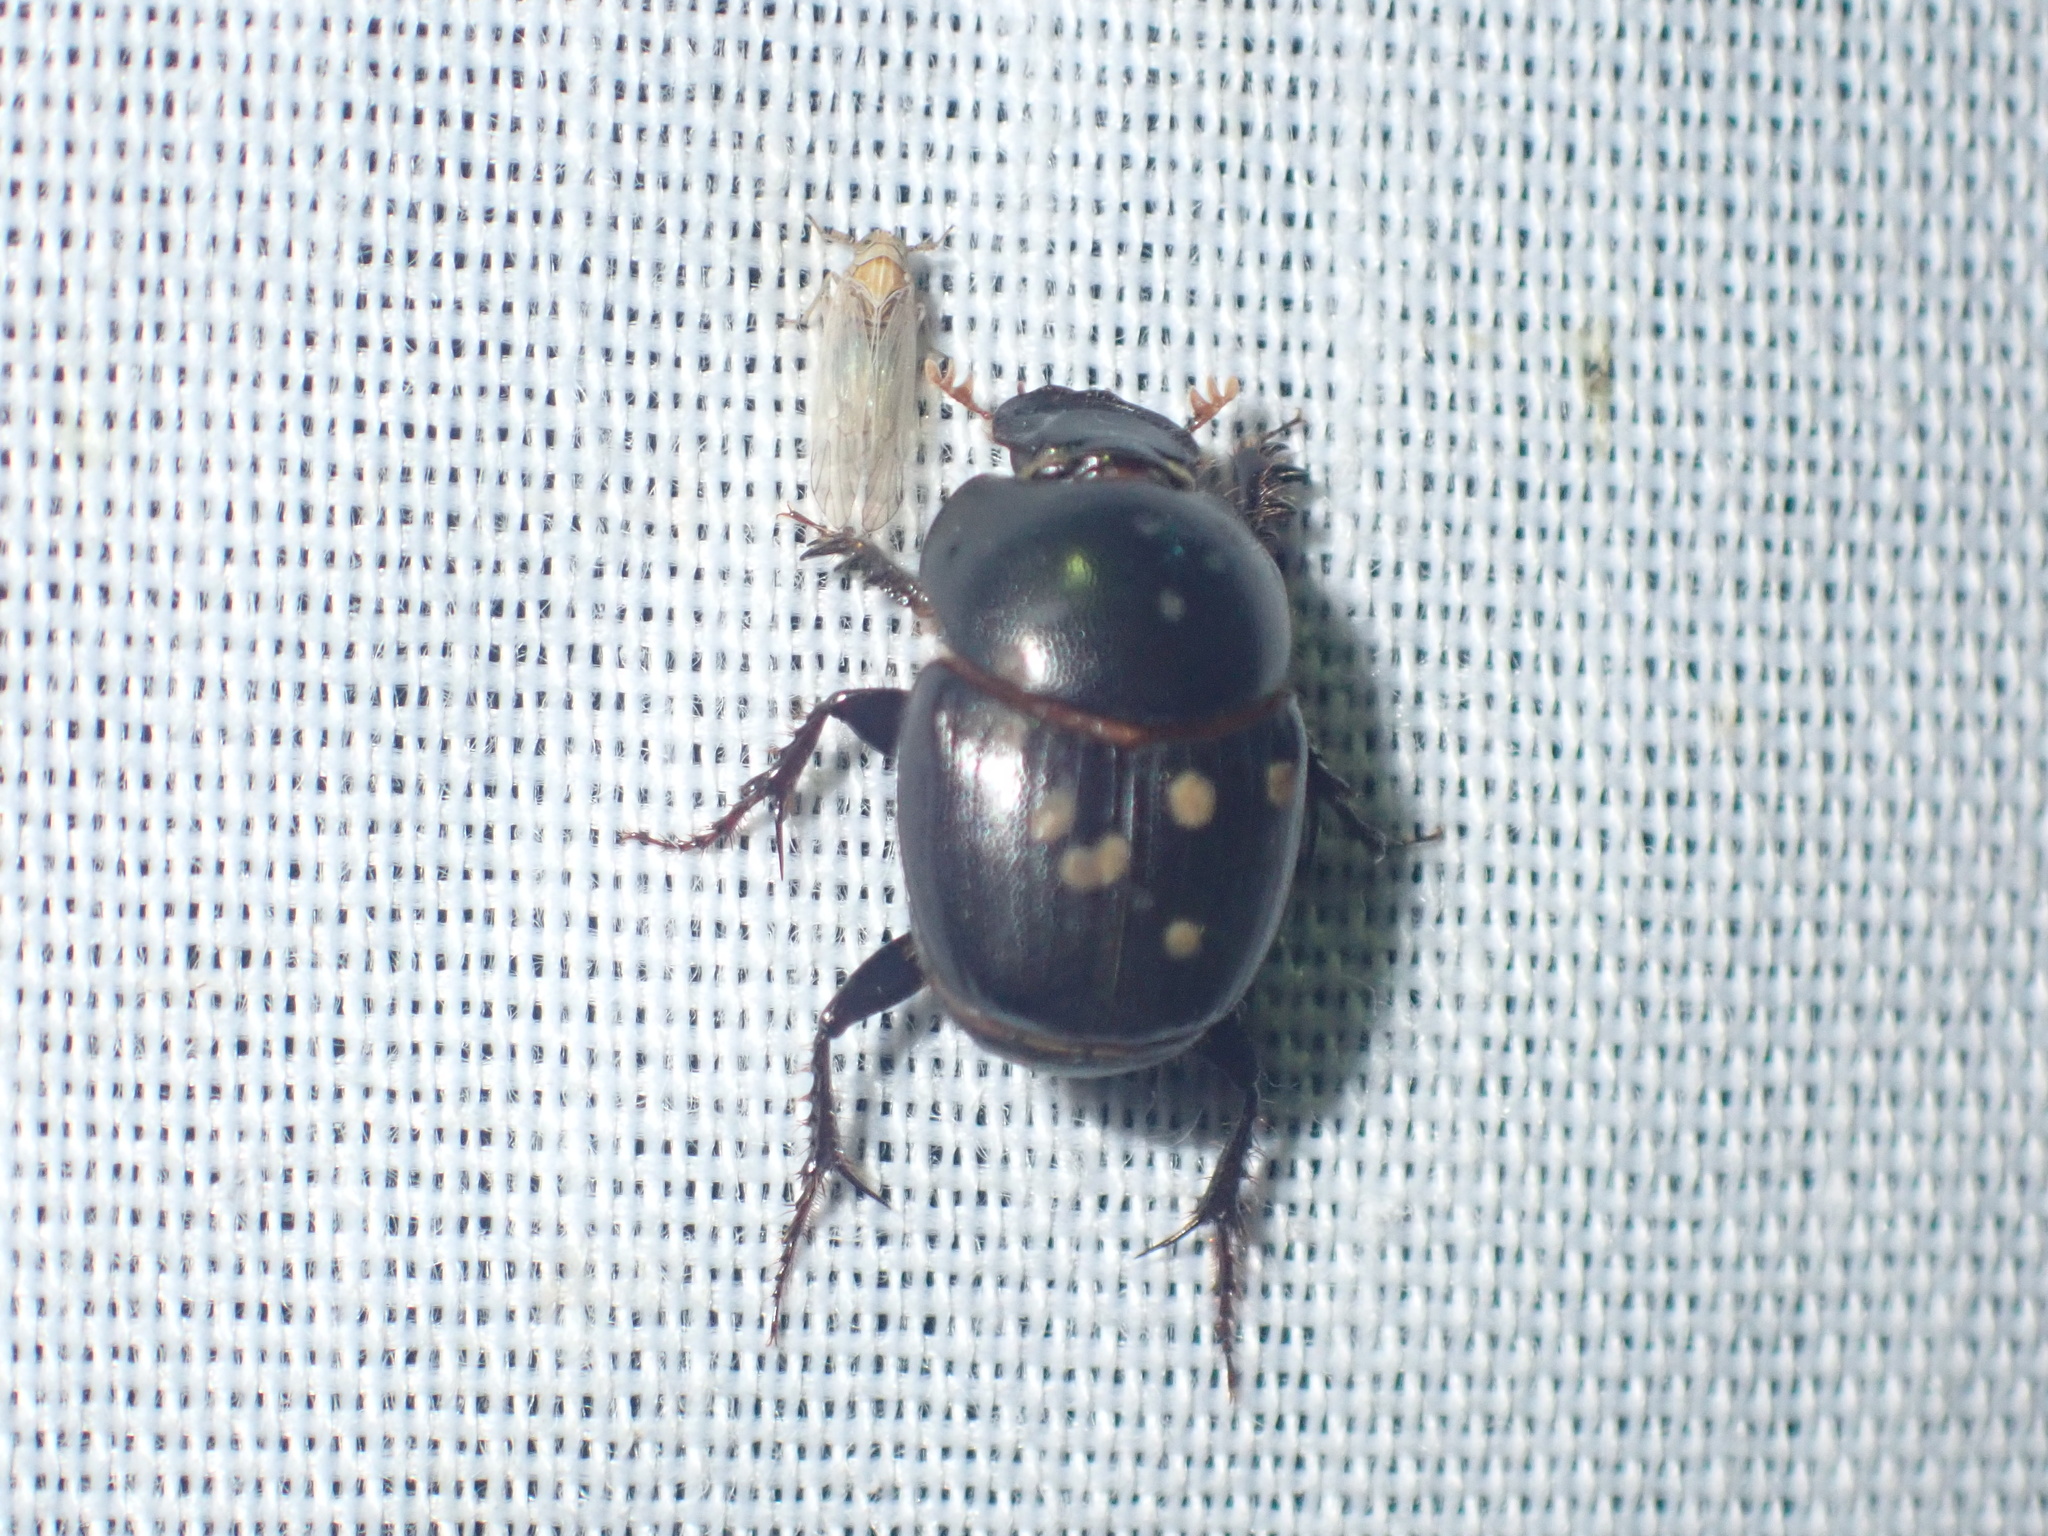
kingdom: Animalia
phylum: Arthropoda
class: Insecta
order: Coleoptera
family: Scarabaeidae
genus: Euonthophagus
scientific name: Euonthophagus carbonarius
